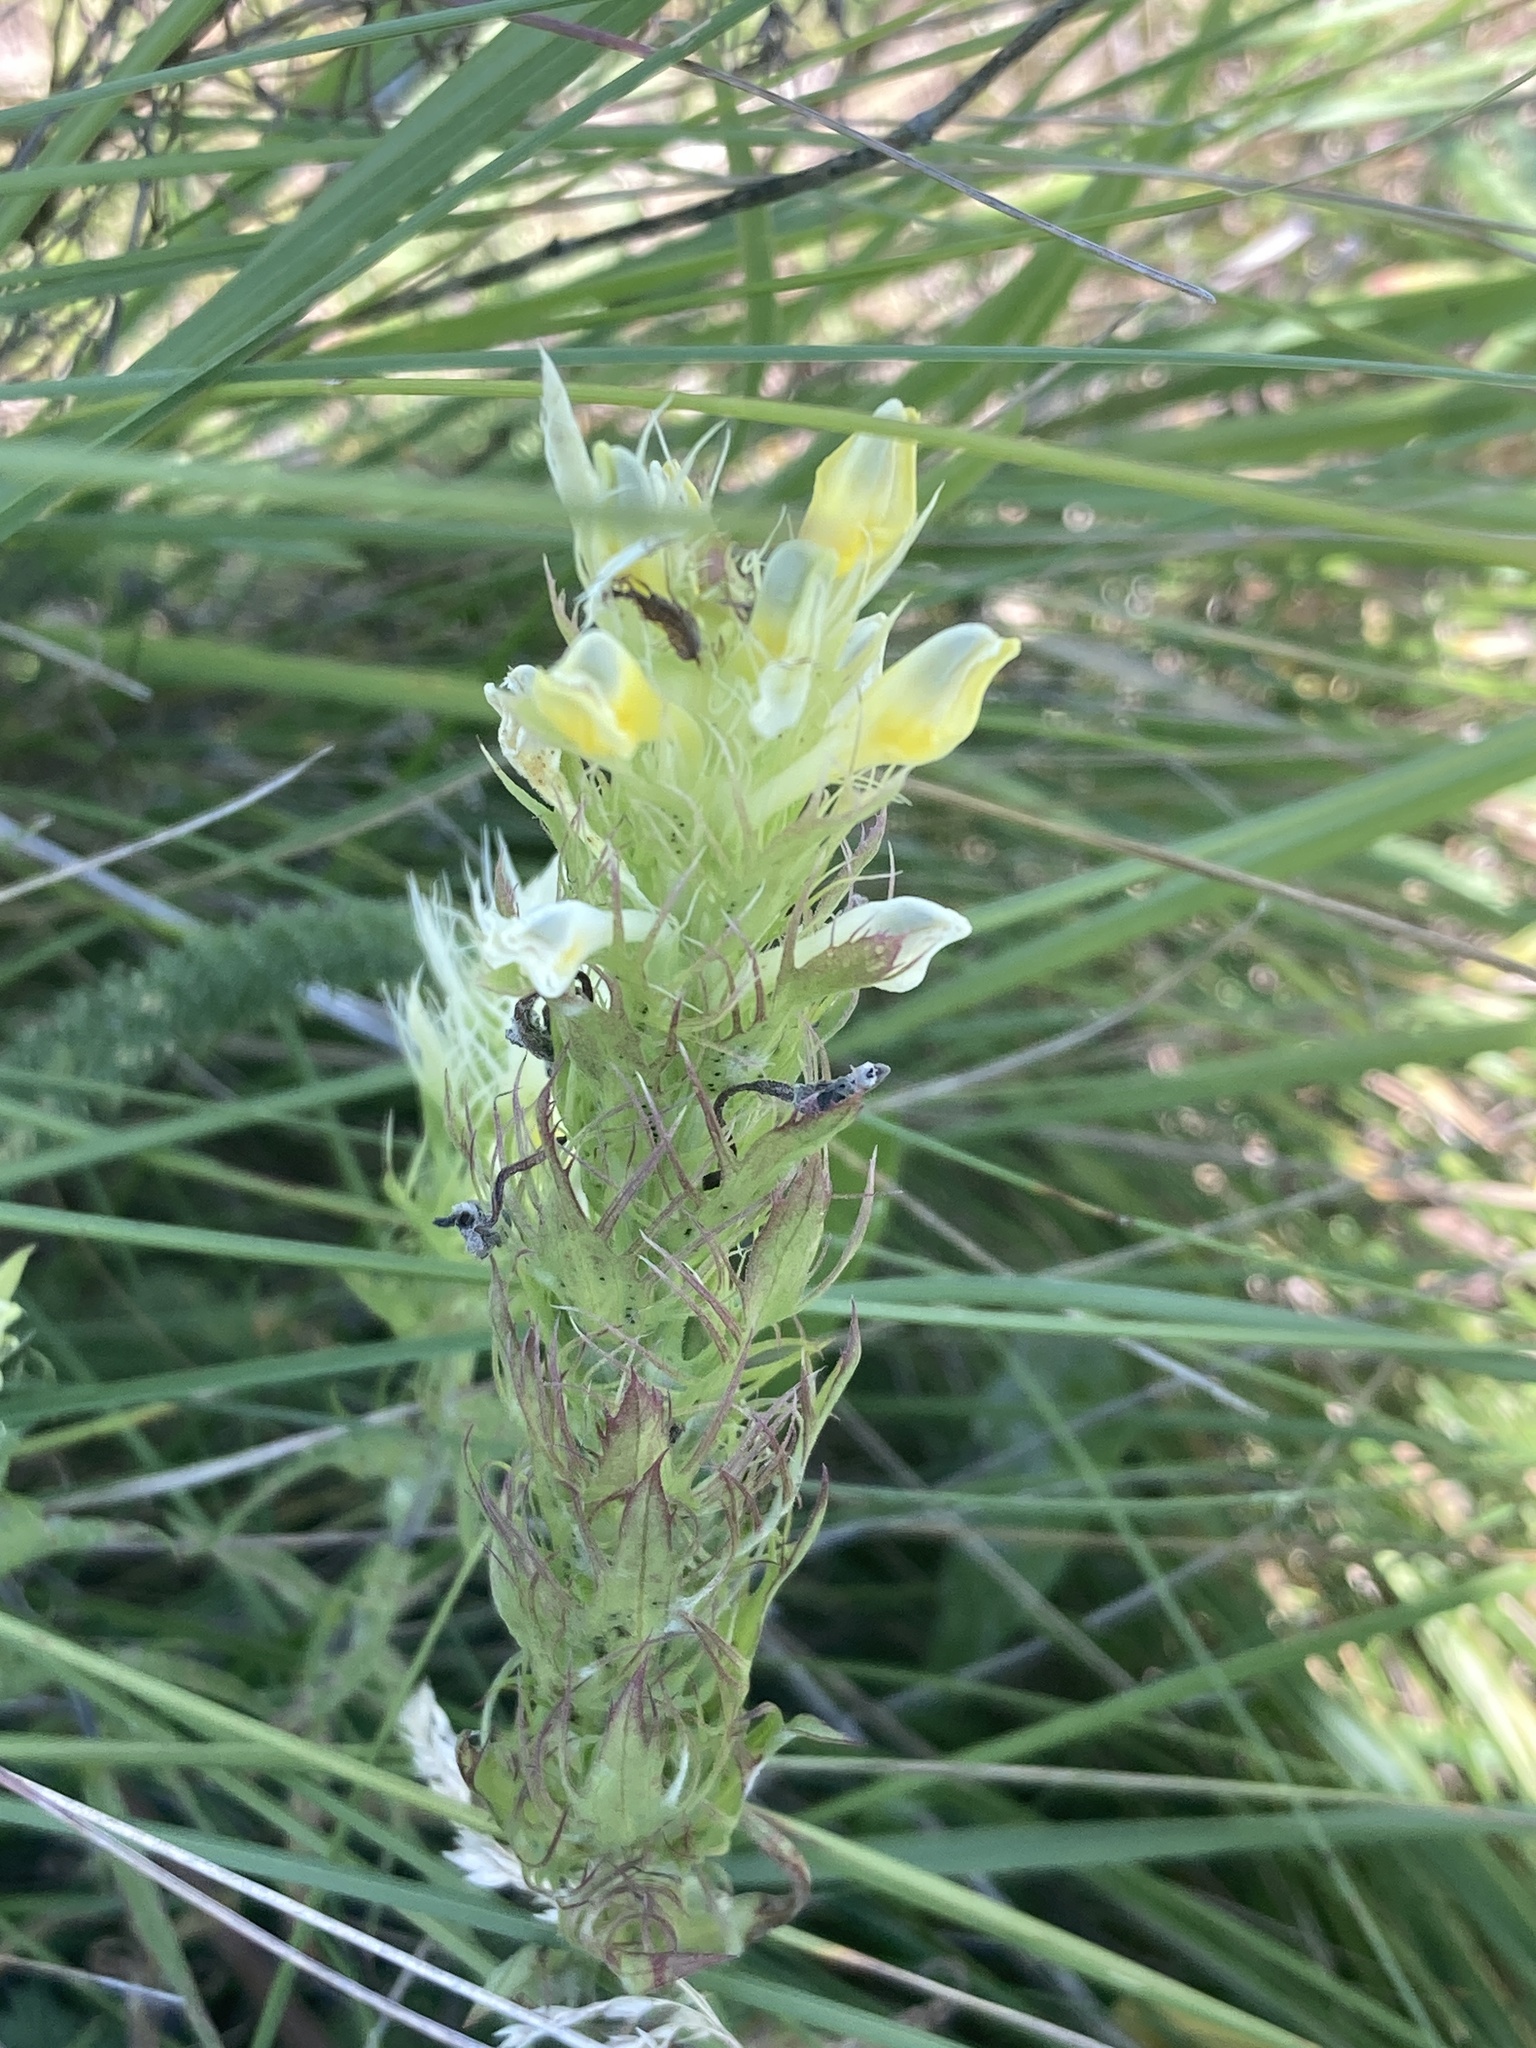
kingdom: Plantae
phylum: Tracheophyta
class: Magnoliopsida
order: Lamiales
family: Orobanchaceae
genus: Melampyrum
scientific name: Melampyrum arvense
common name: Field cow-wheat
